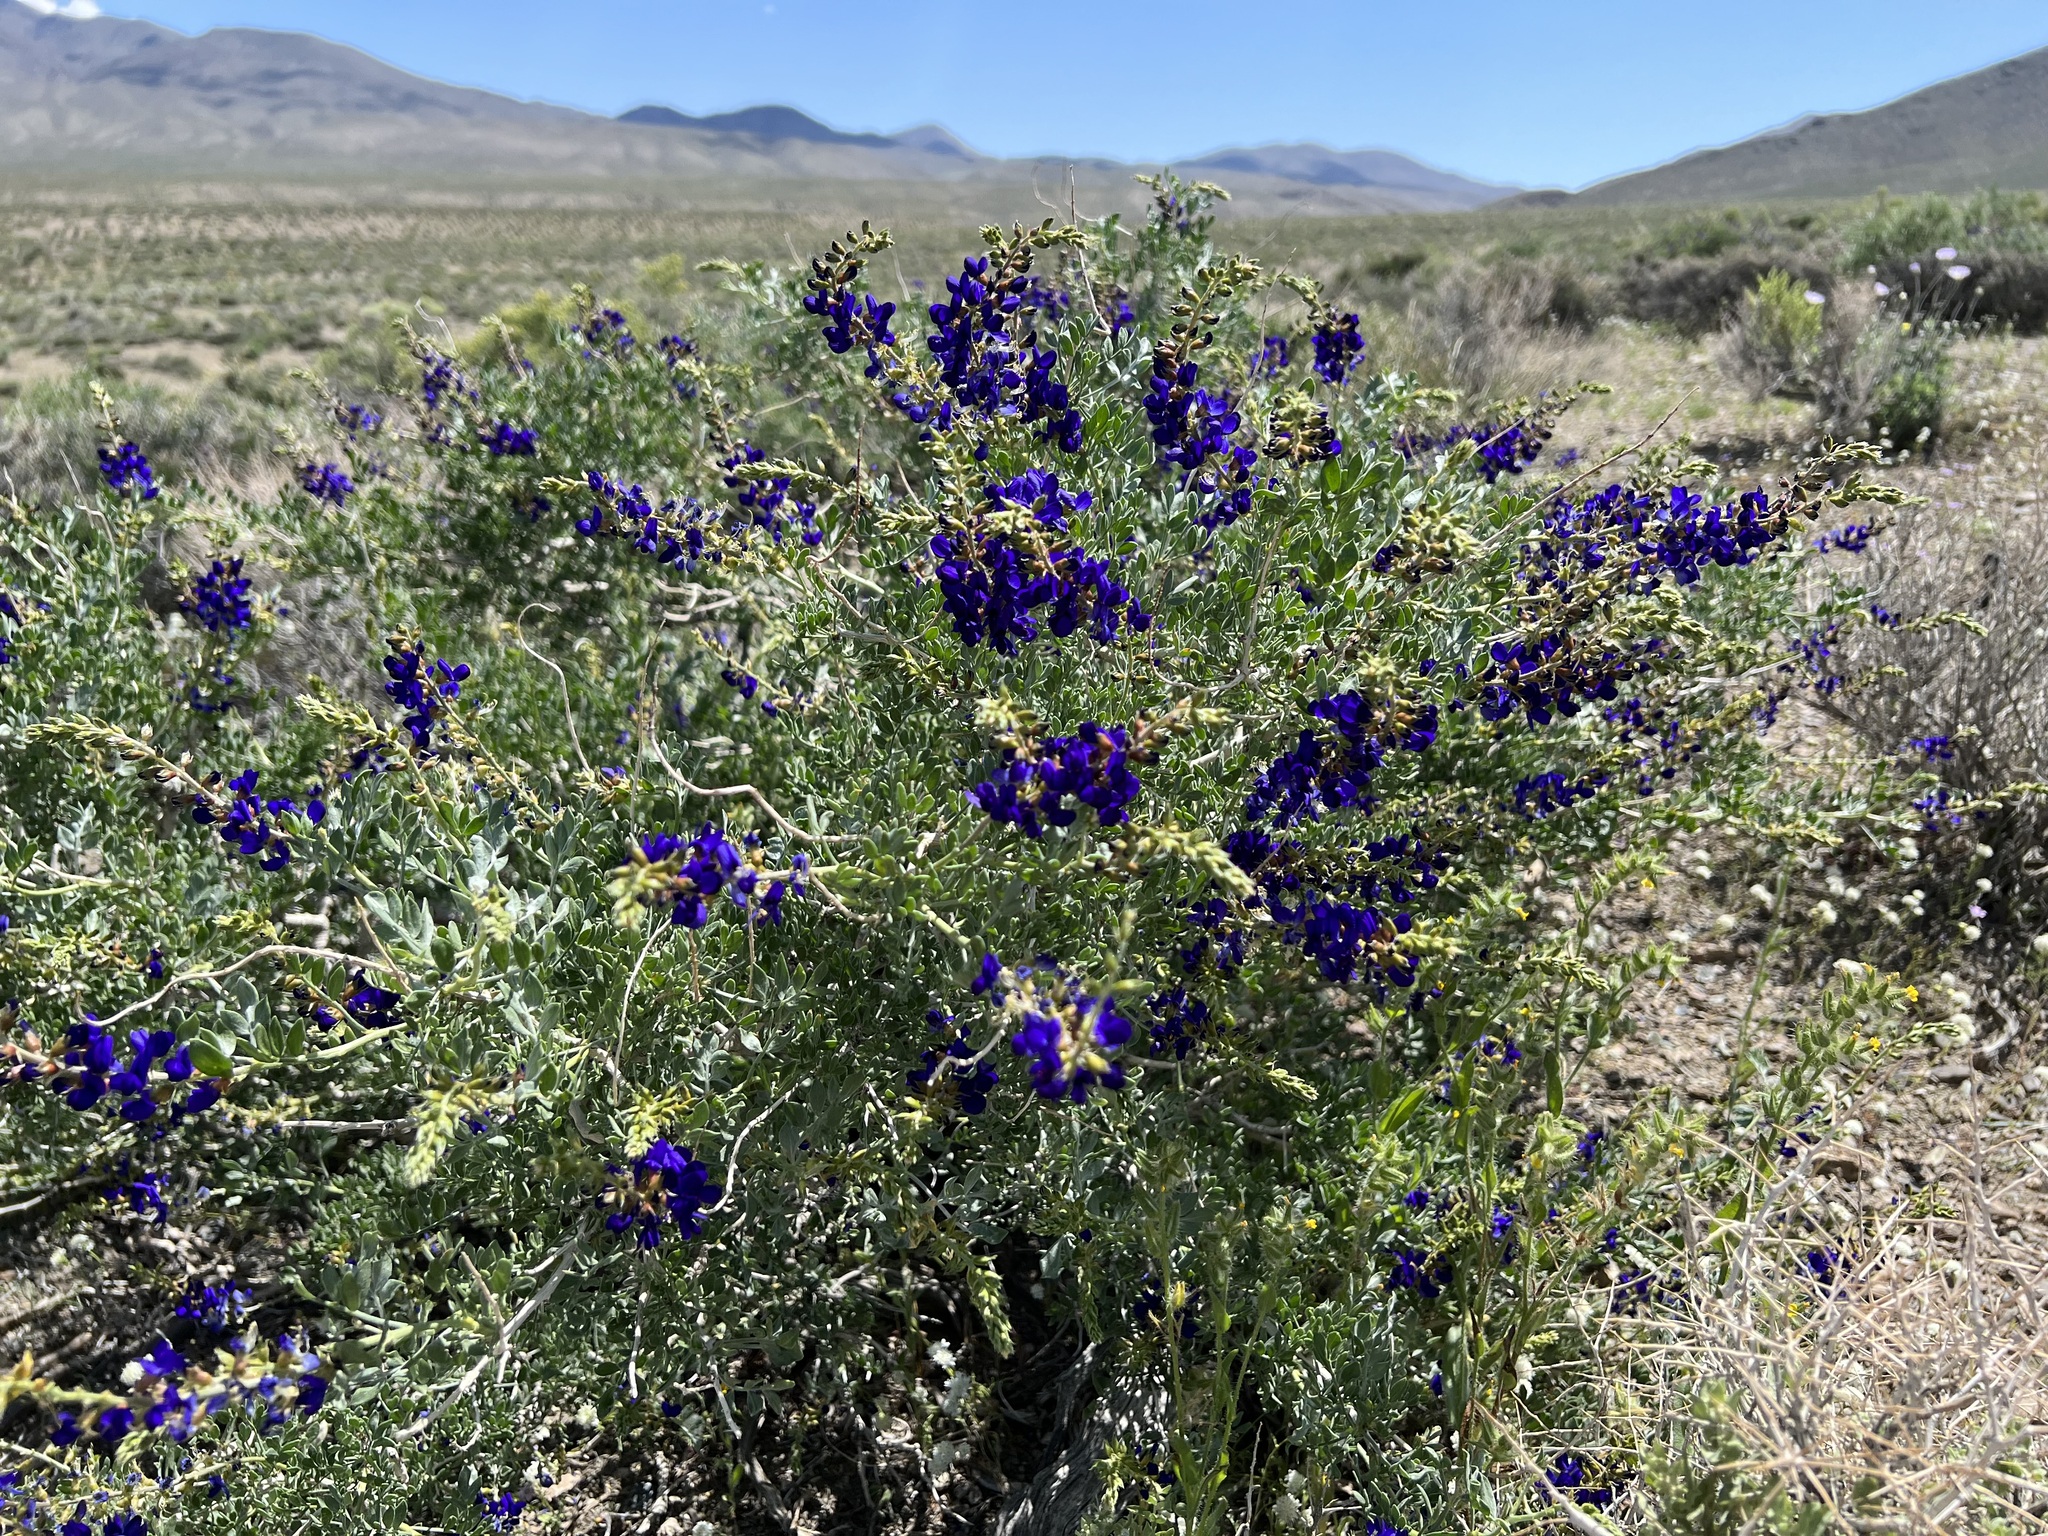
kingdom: Plantae
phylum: Tracheophyta
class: Magnoliopsida
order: Fabales
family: Fabaceae
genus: Psorothamnus
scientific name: Psorothamnus arborescens
